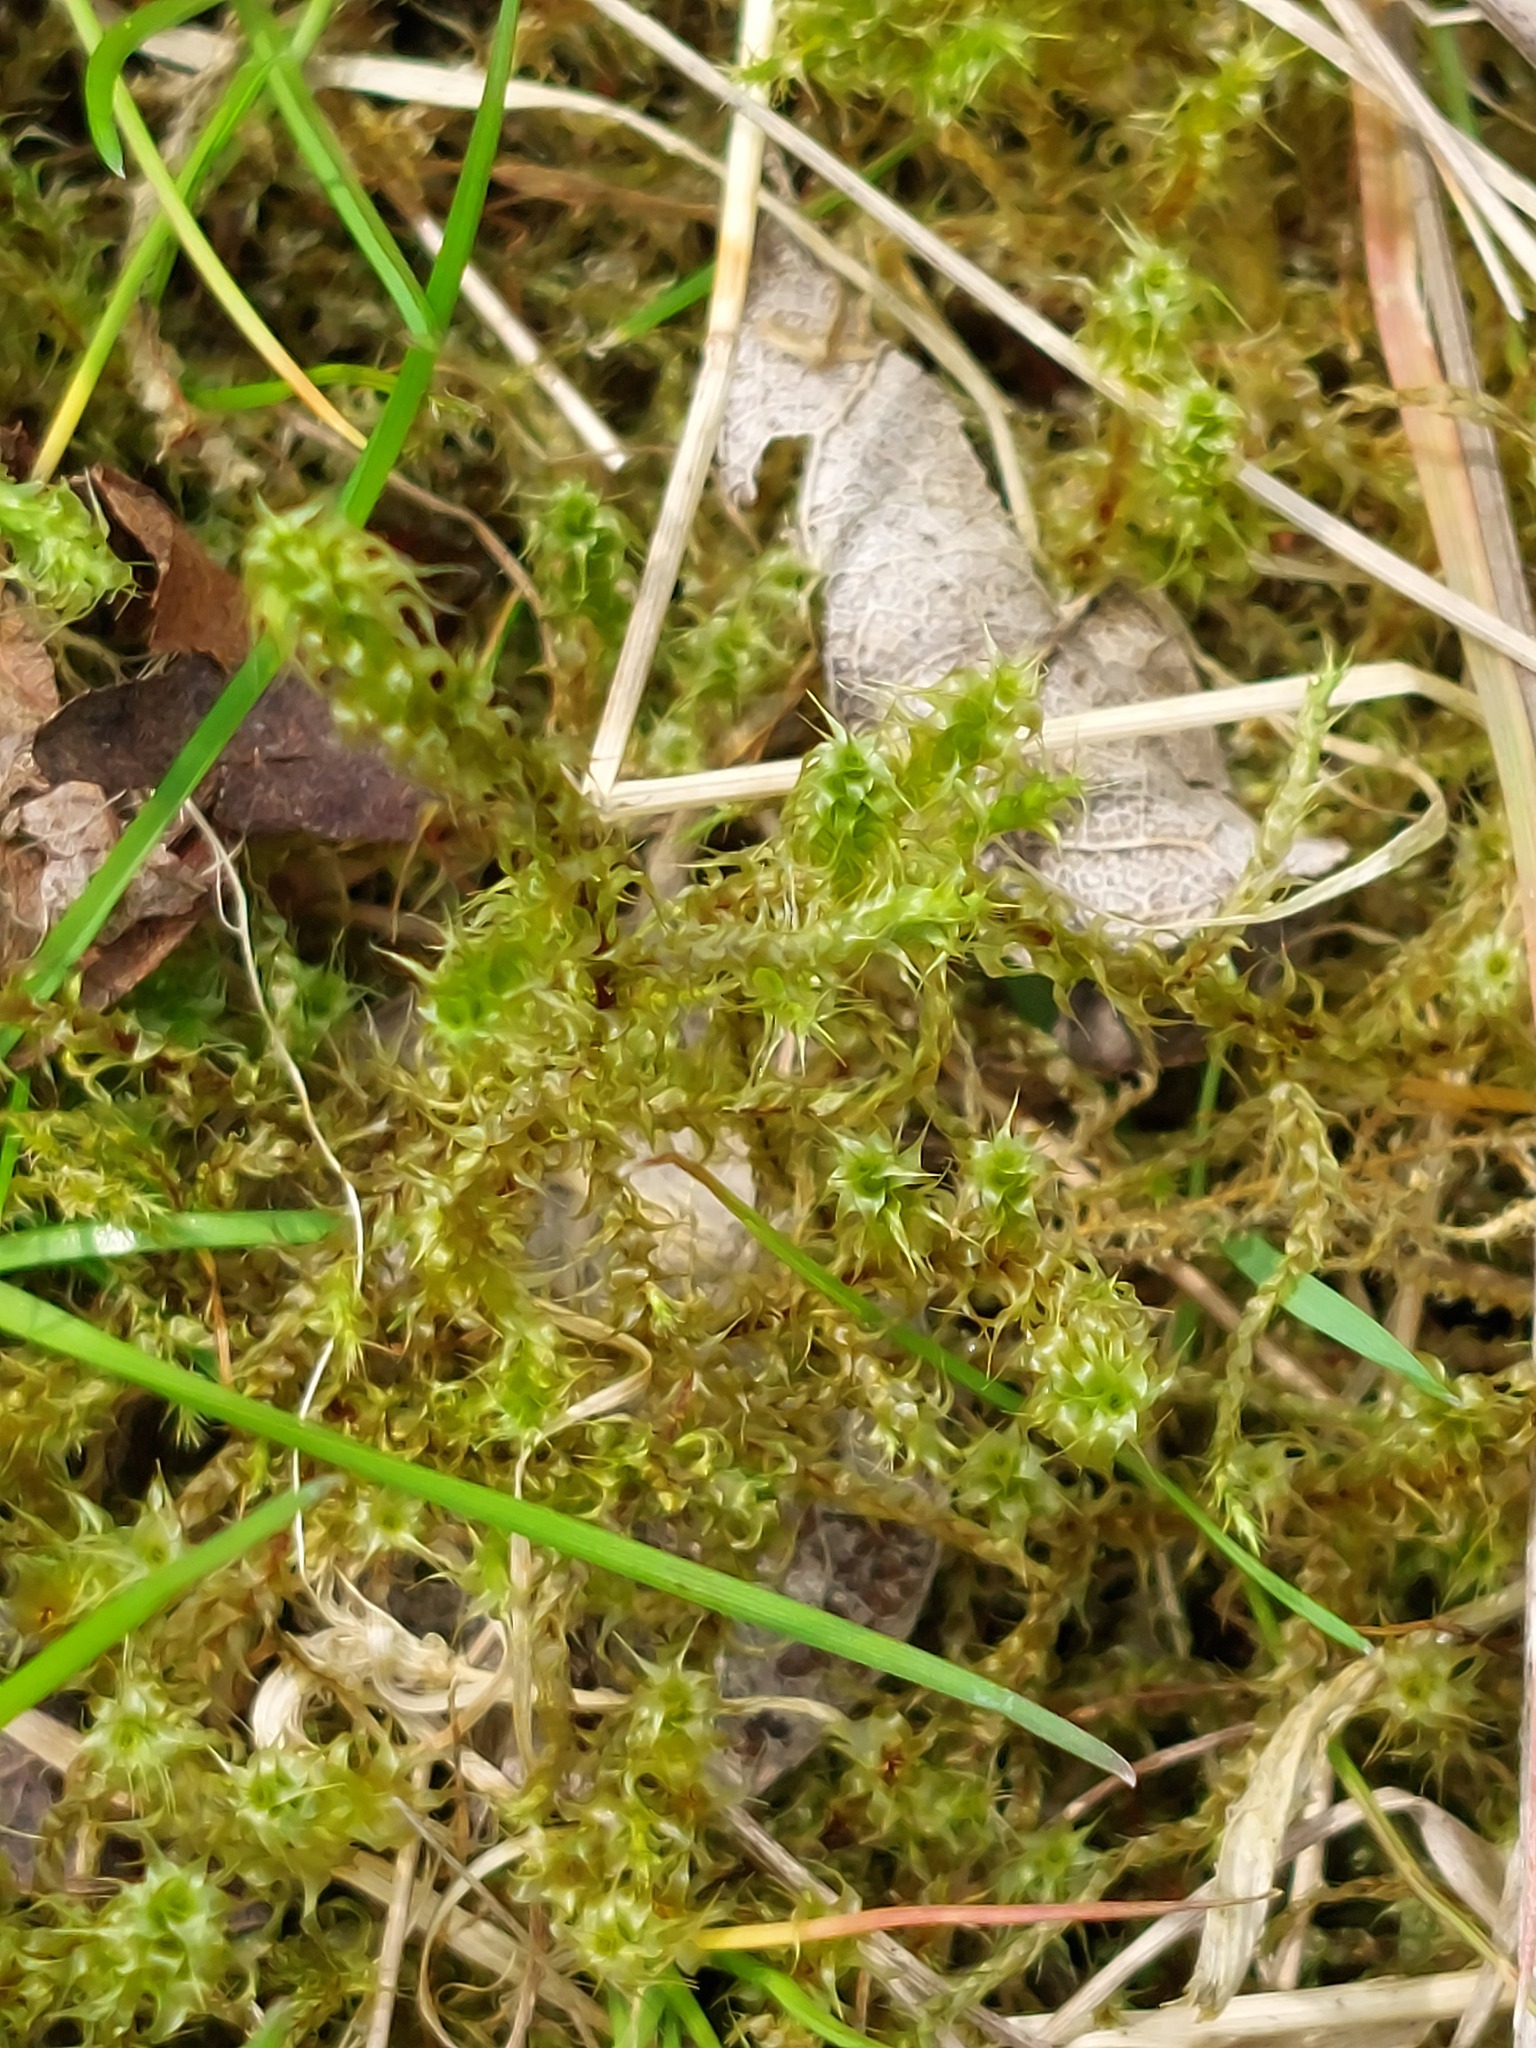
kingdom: Plantae
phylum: Bryophyta
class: Bryopsida
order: Hypnales
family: Hylocomiaceae
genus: Rhytidiadelphus
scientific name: Rhytidiadelphus squarrosus
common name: Springy turf-moss
